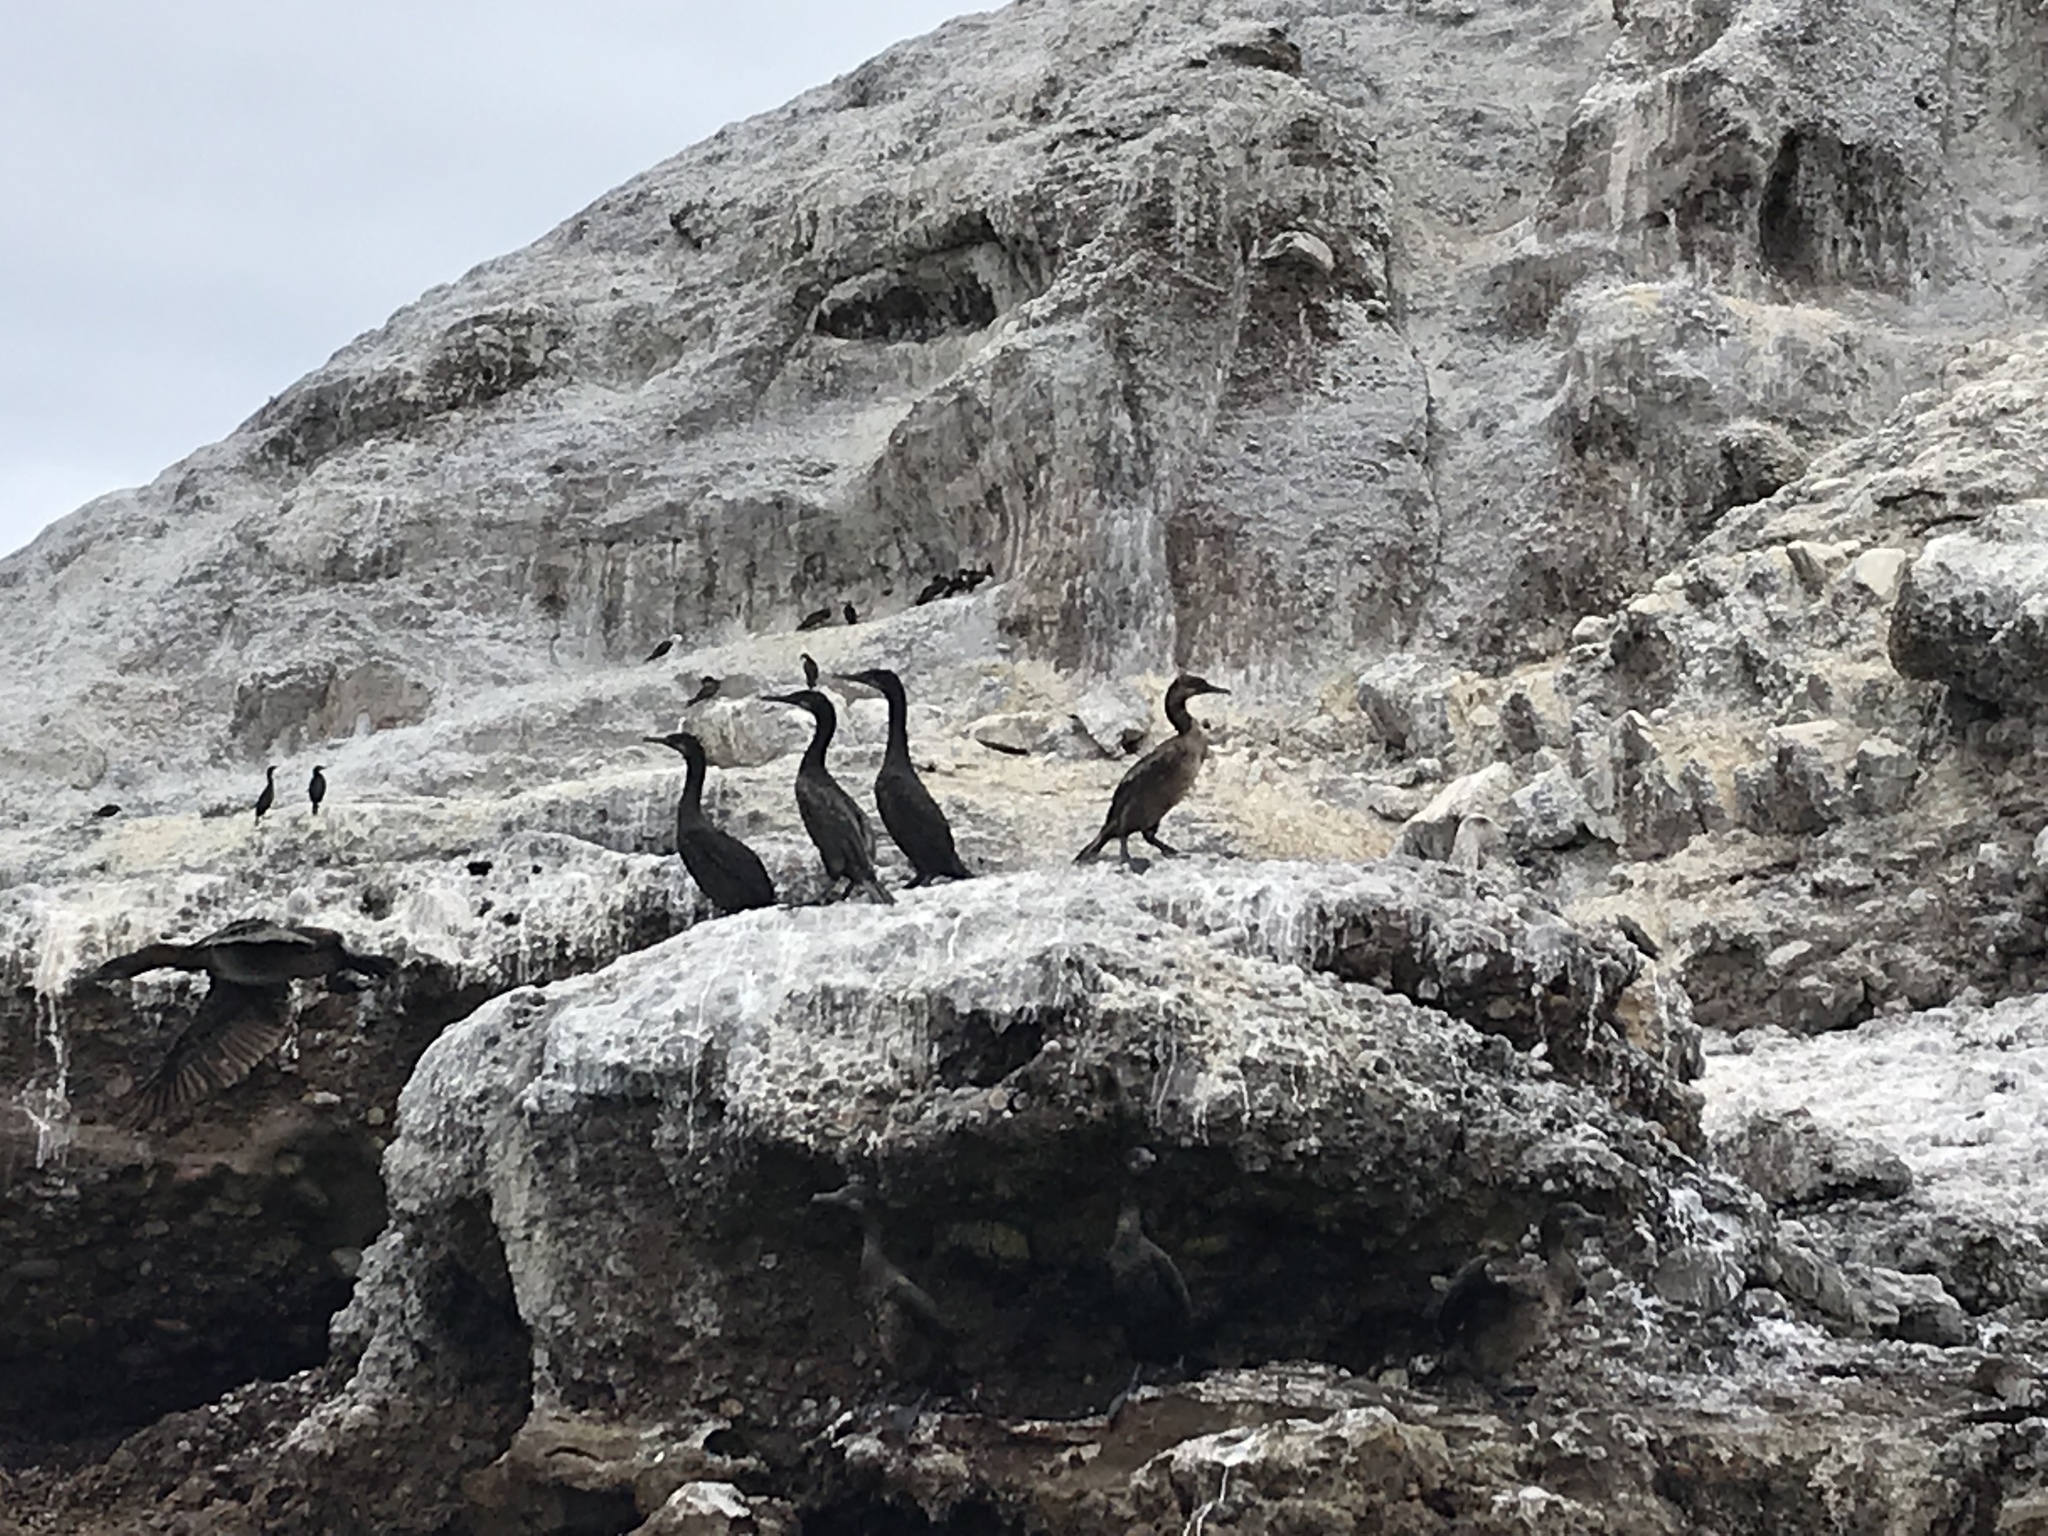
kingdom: Animalia
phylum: Chordata
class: Aves
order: Suliformes
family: Phalacrocoracidae
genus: Urile
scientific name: Urile penicillatus
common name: Brandt's cormorant
